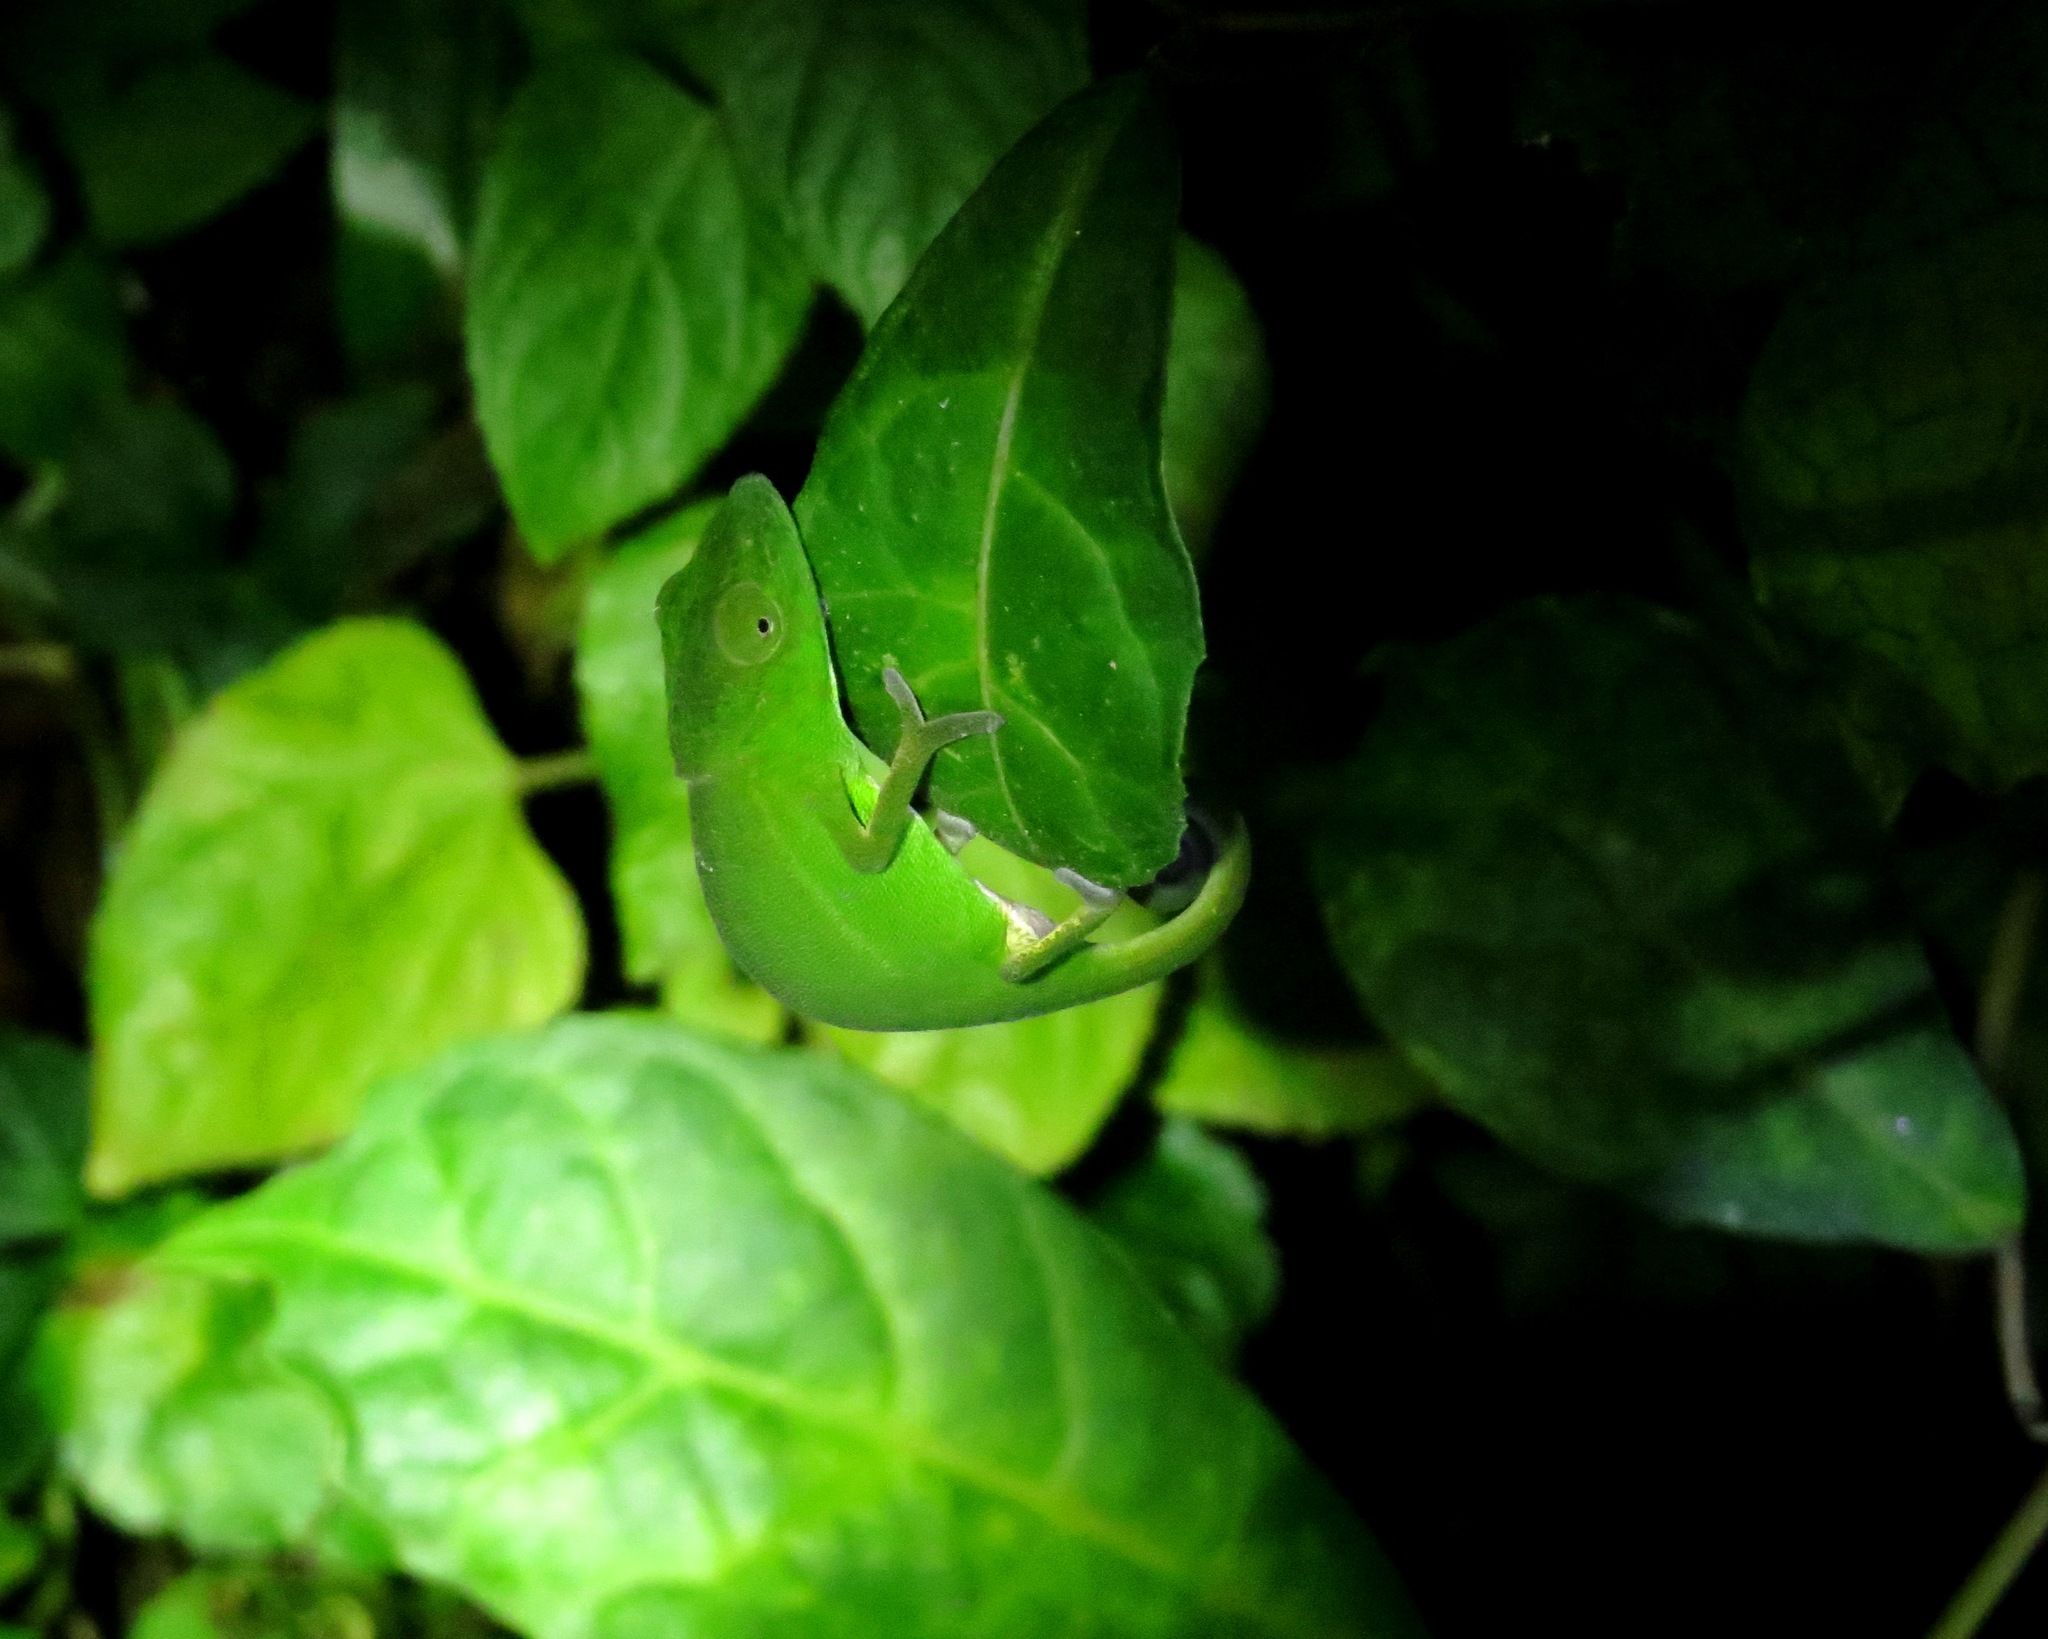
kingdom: Animalia
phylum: Chordata
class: Squamata
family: Chamaeleonidae
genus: Calumma
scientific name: Calumma glawi
